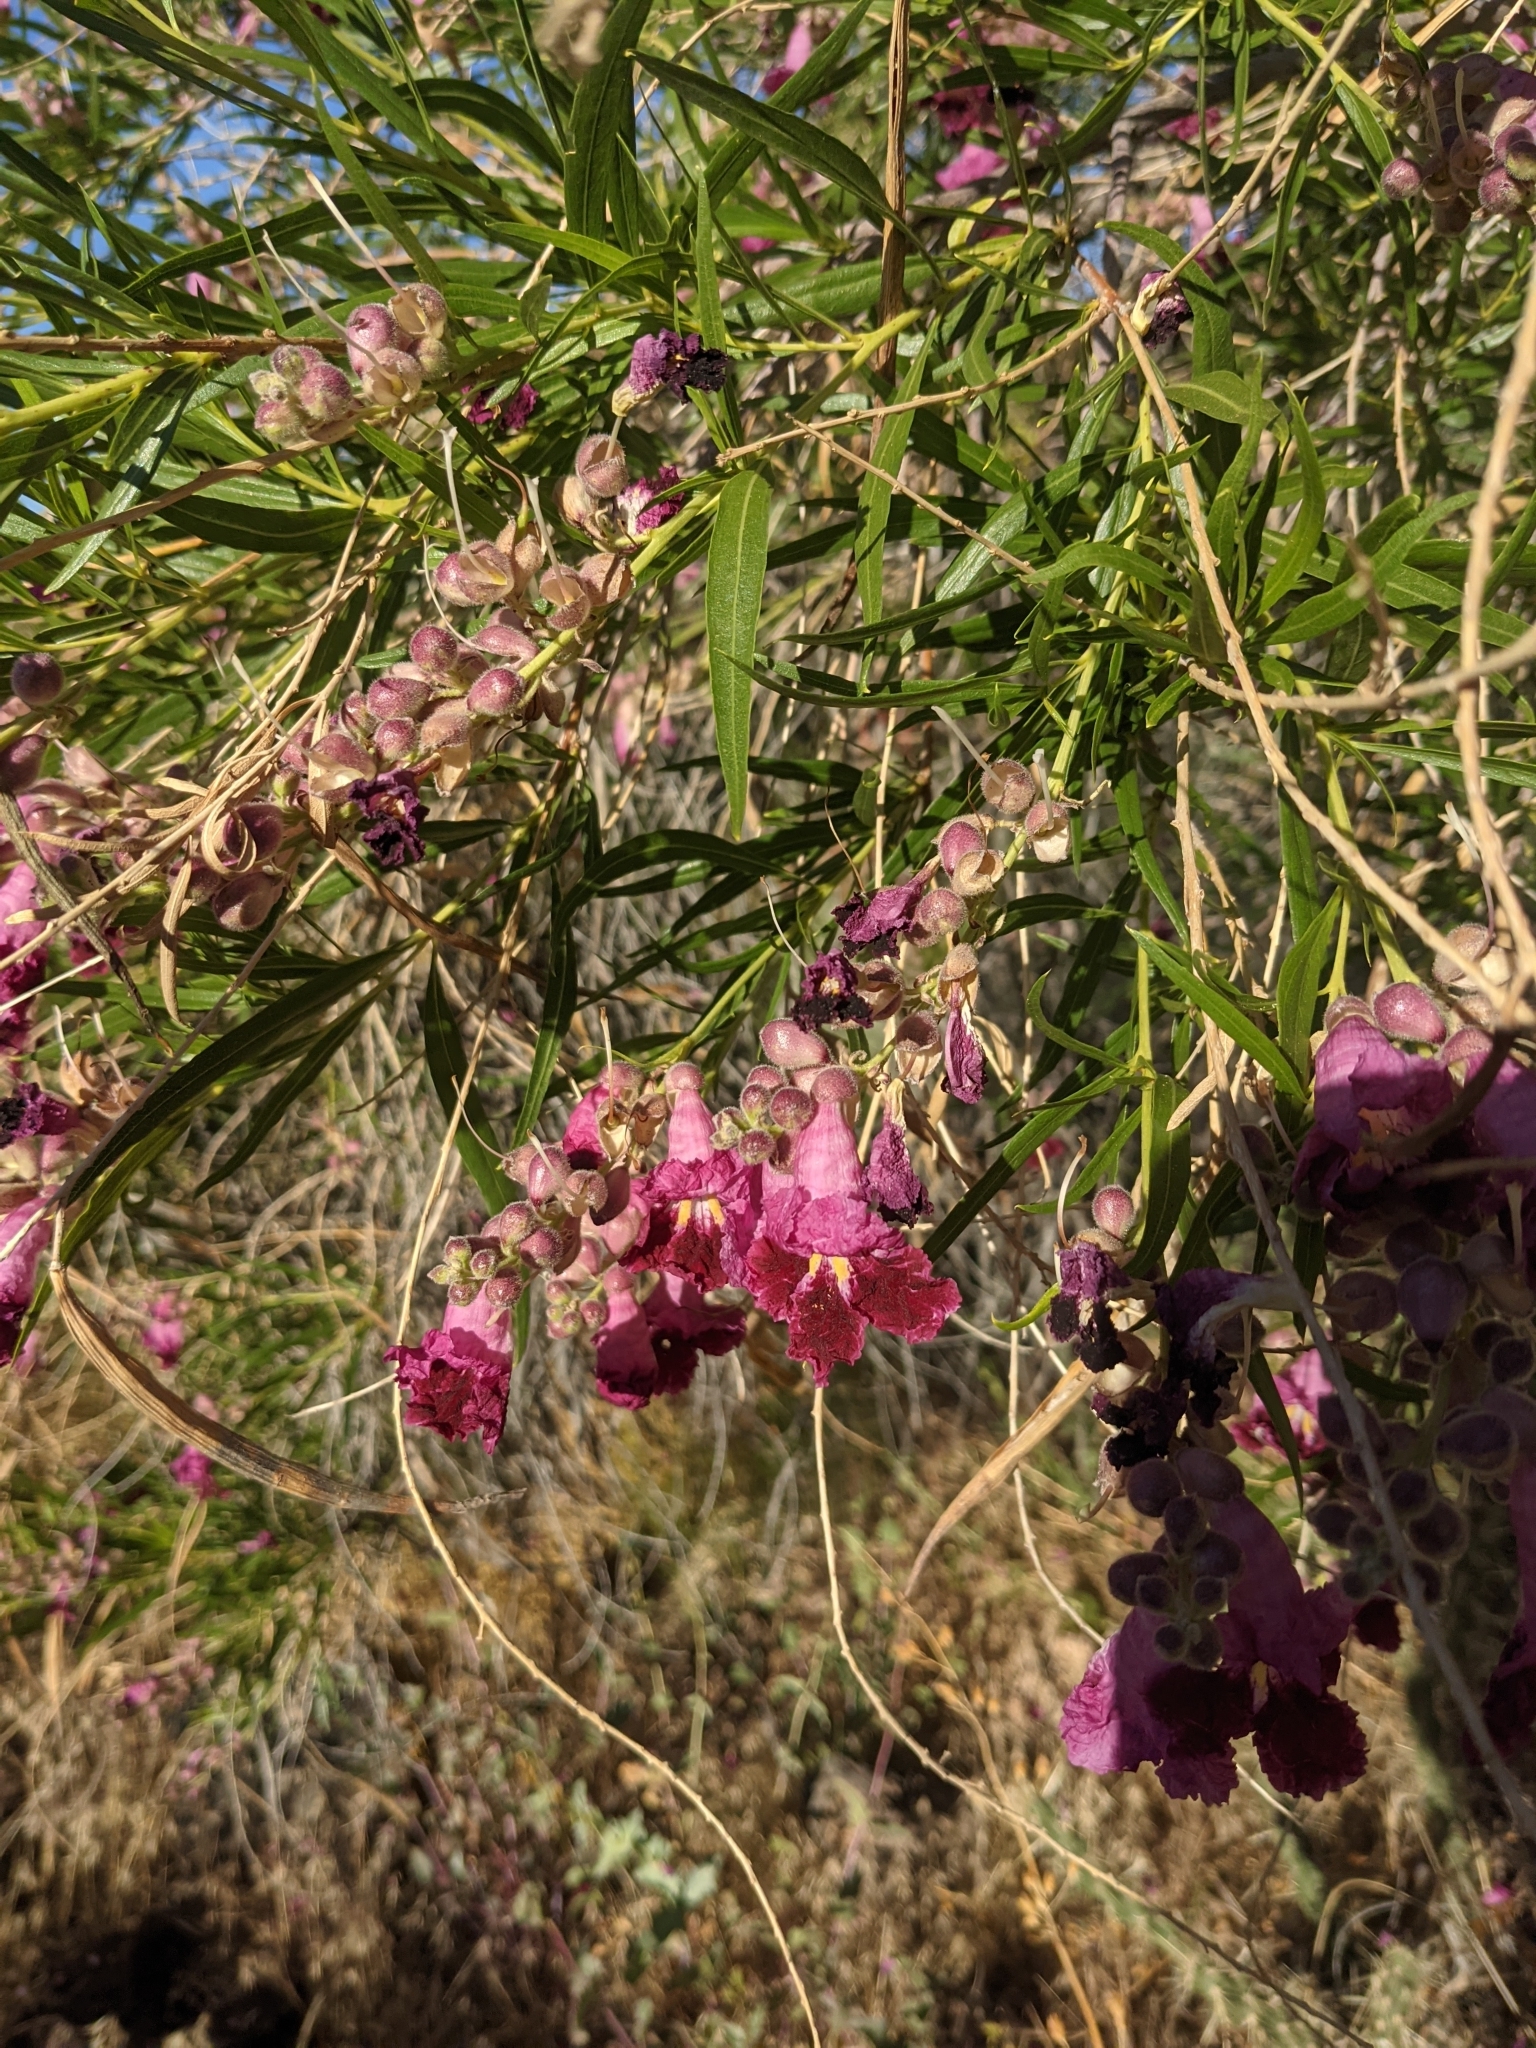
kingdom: Plantae
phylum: Tracheophyta
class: Magnoliopsida
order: Lamiales
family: Bignoniaceae
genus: Chilopsis
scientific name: Chilopsis linearis
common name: Desert-willow
